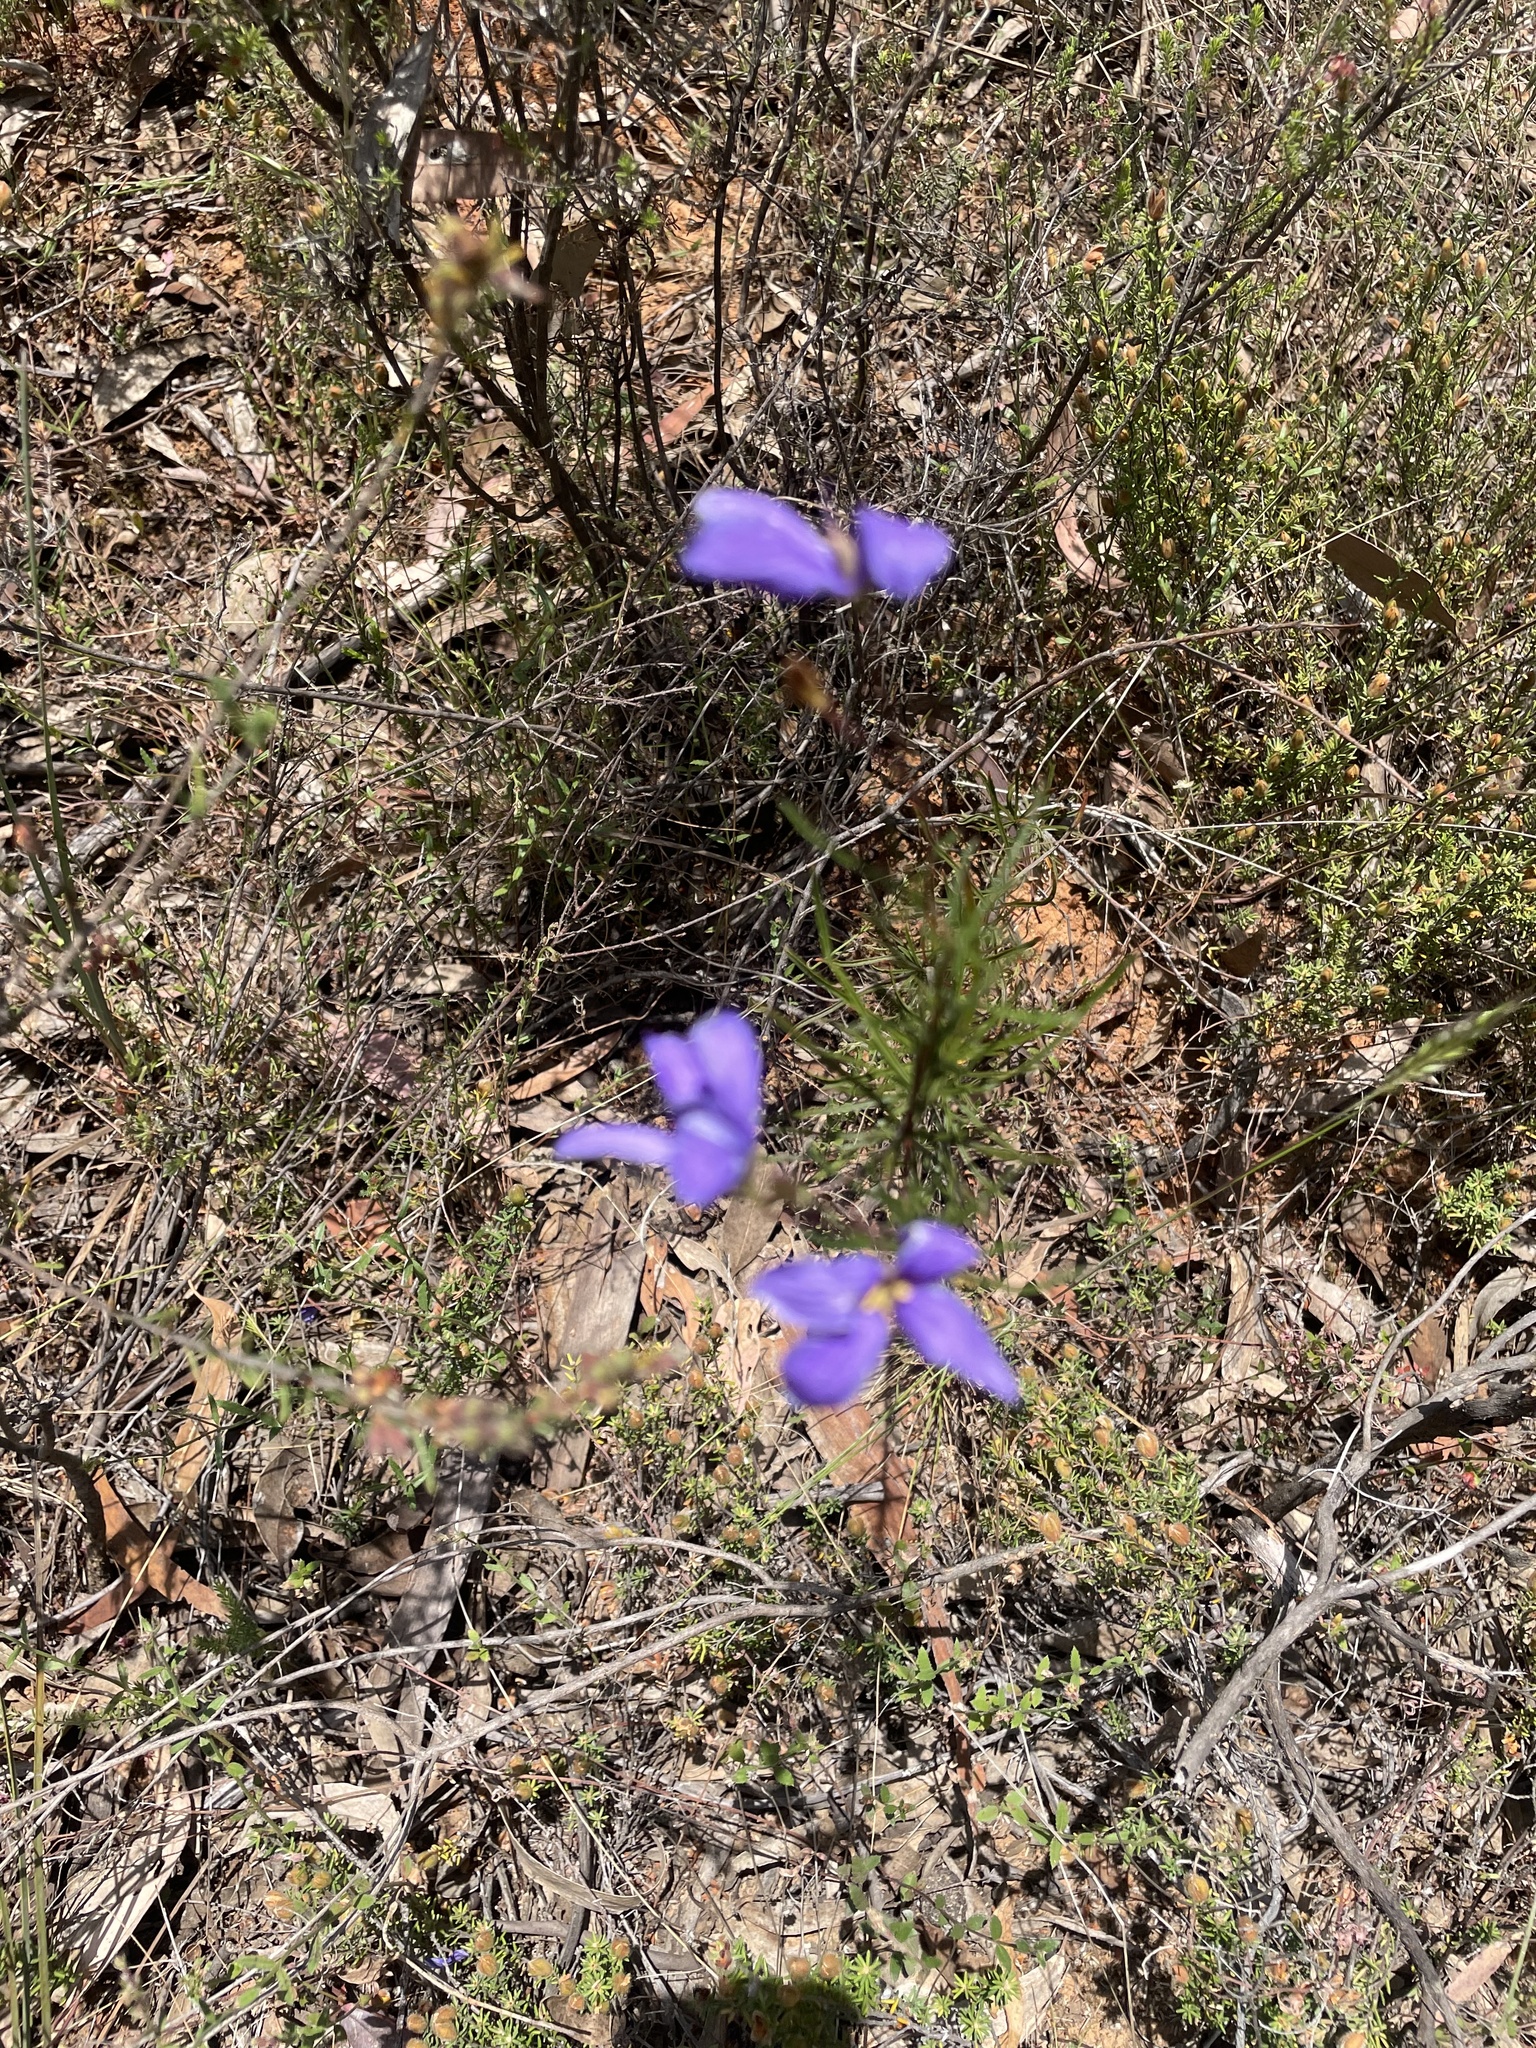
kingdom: Plantae
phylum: Tracheophyta
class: Magnoliopsida
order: Apiales
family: Pittosporaceae
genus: Cheiranthera
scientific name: Cheiranthera linearis
